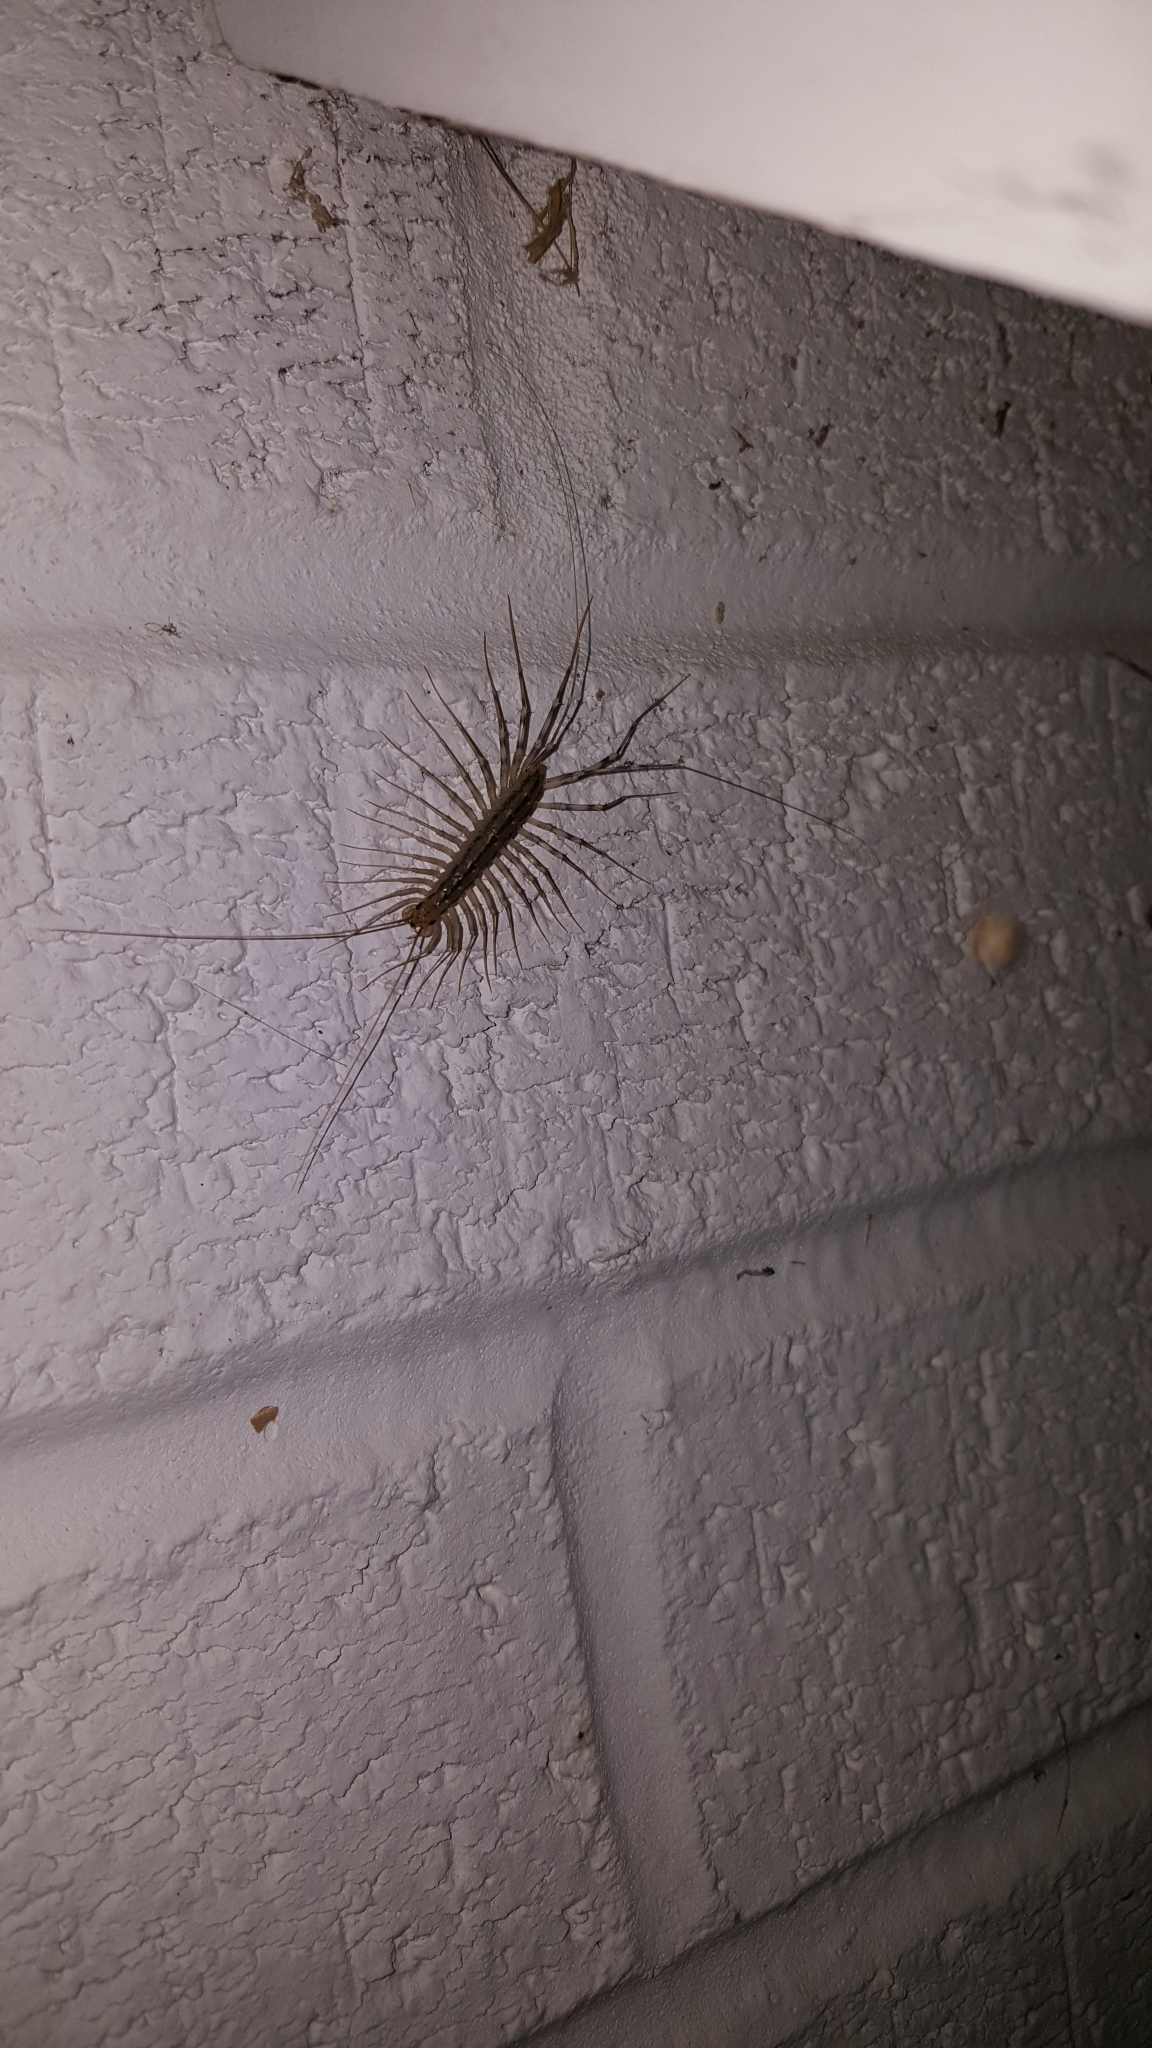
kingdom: Animalia
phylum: Arthropoda
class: Chilopoda
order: Scutigeromorpha
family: Scutigeridae
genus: Scutigera
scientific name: Scutigera coleoptrata
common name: House centipede
